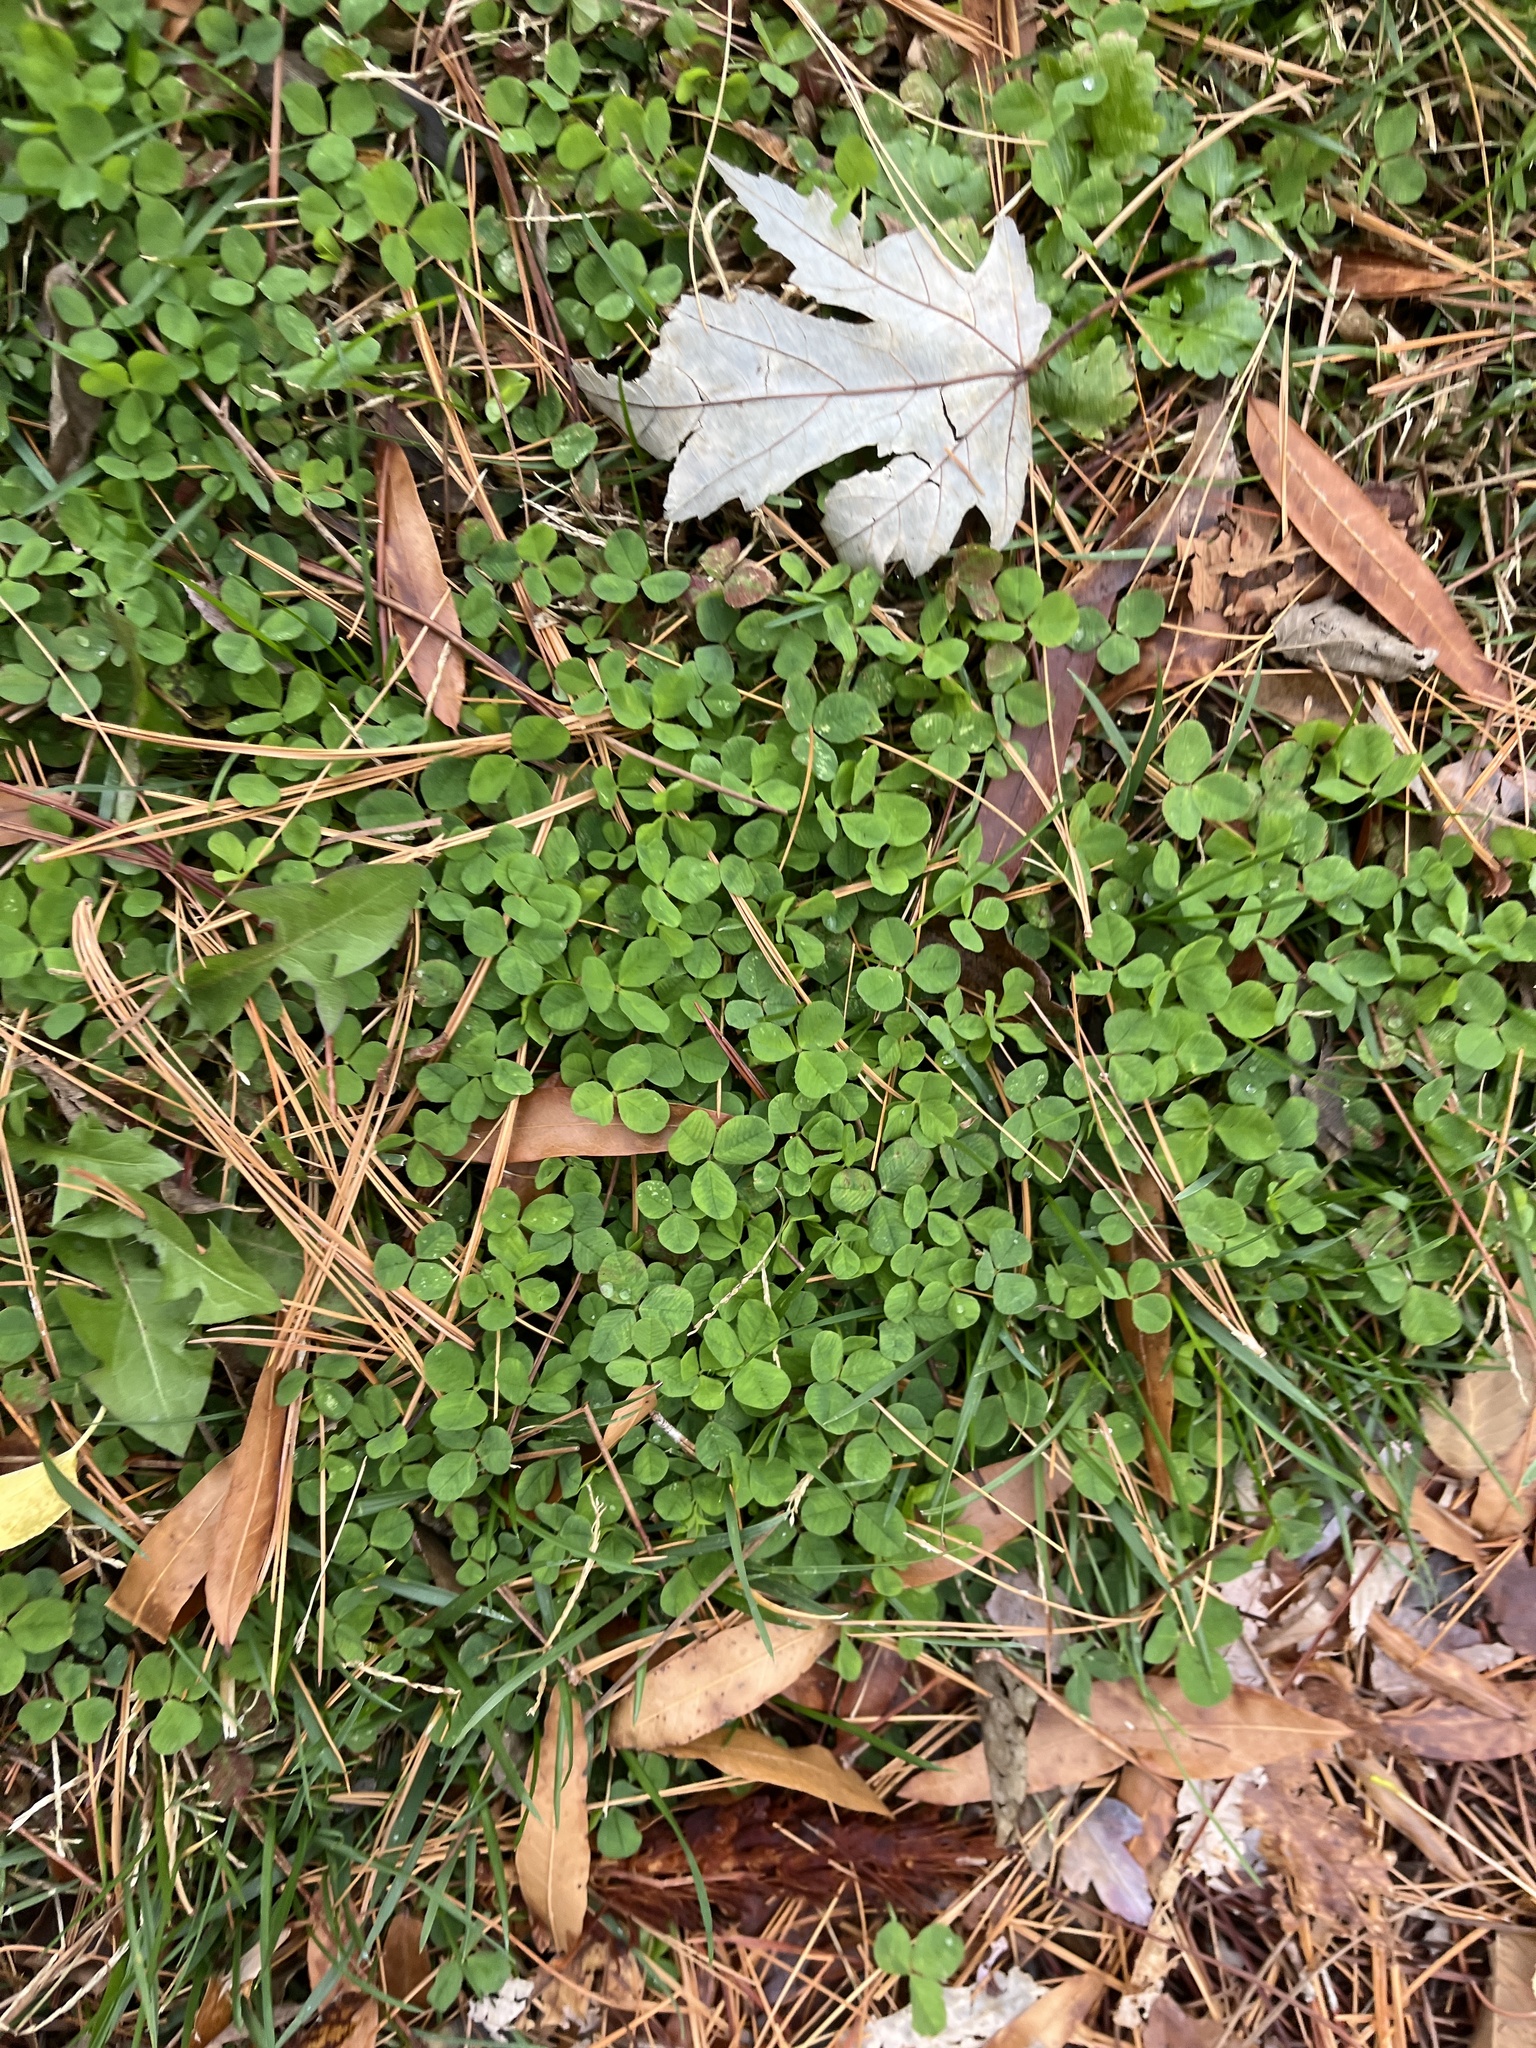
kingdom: Plantae
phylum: Tracheophyta
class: Magnoliopsida
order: Fabales
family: Fabaceae
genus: Trifolium
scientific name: Trifolium repens
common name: White clover
